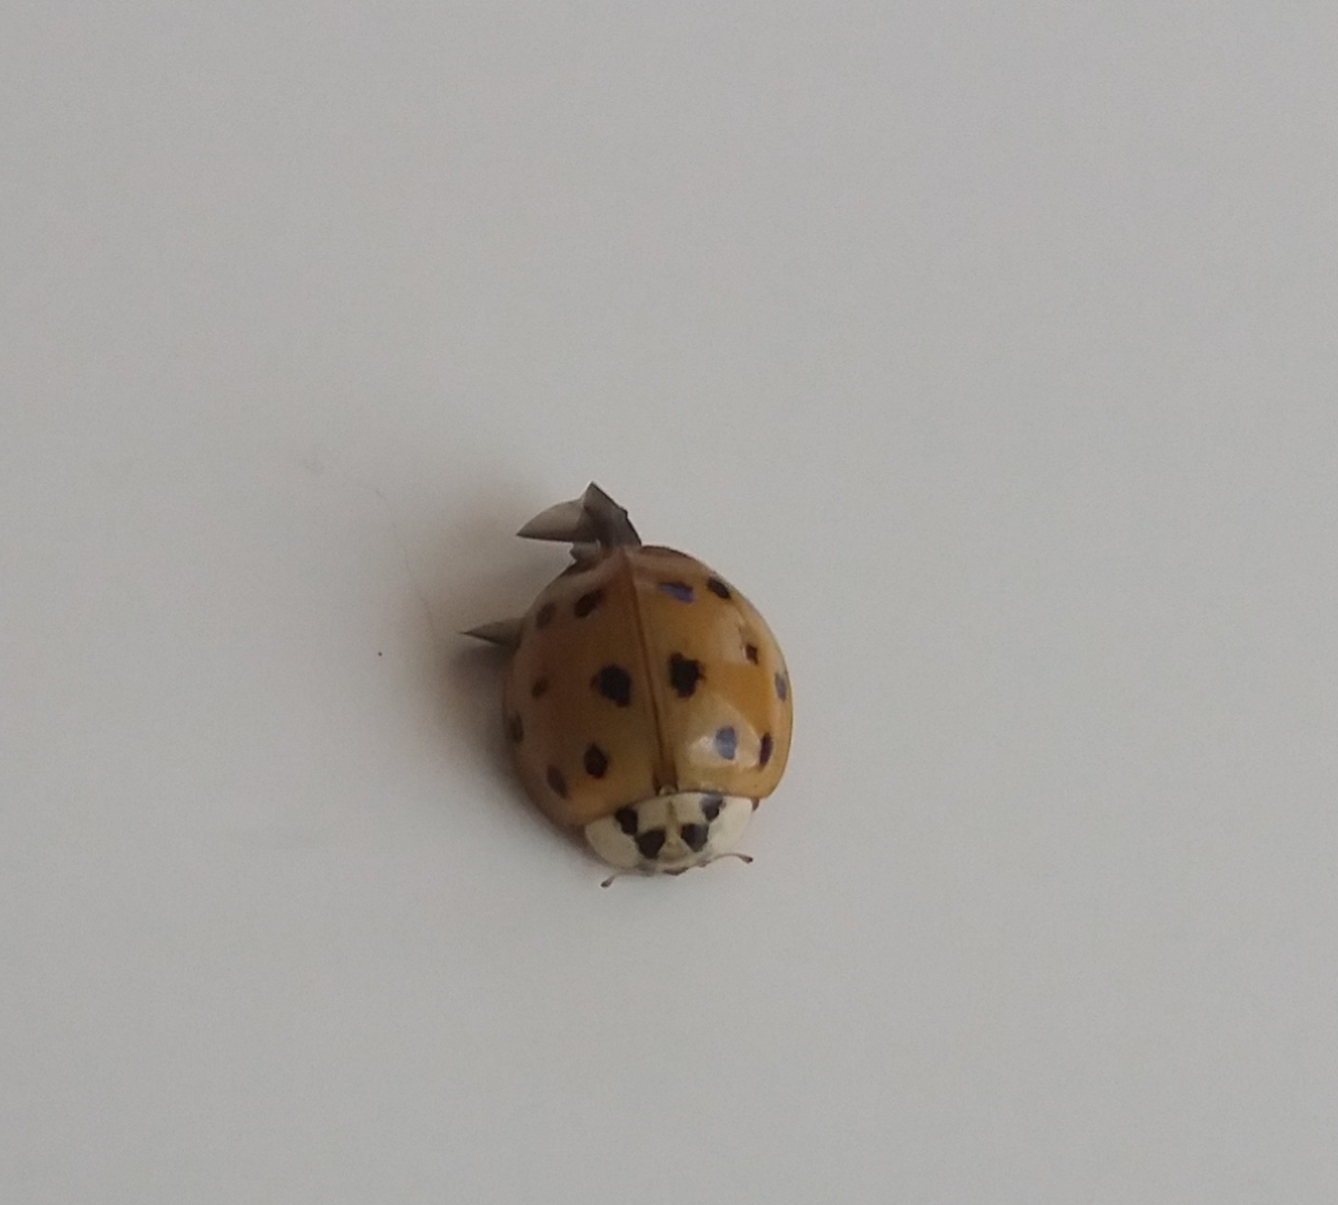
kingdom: Animalia
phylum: Arthropoda
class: Insecta
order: Coleoptera
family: Coccinellidae
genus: Harmonia
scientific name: Harmonia axyridis
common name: Harlequin ladybird
